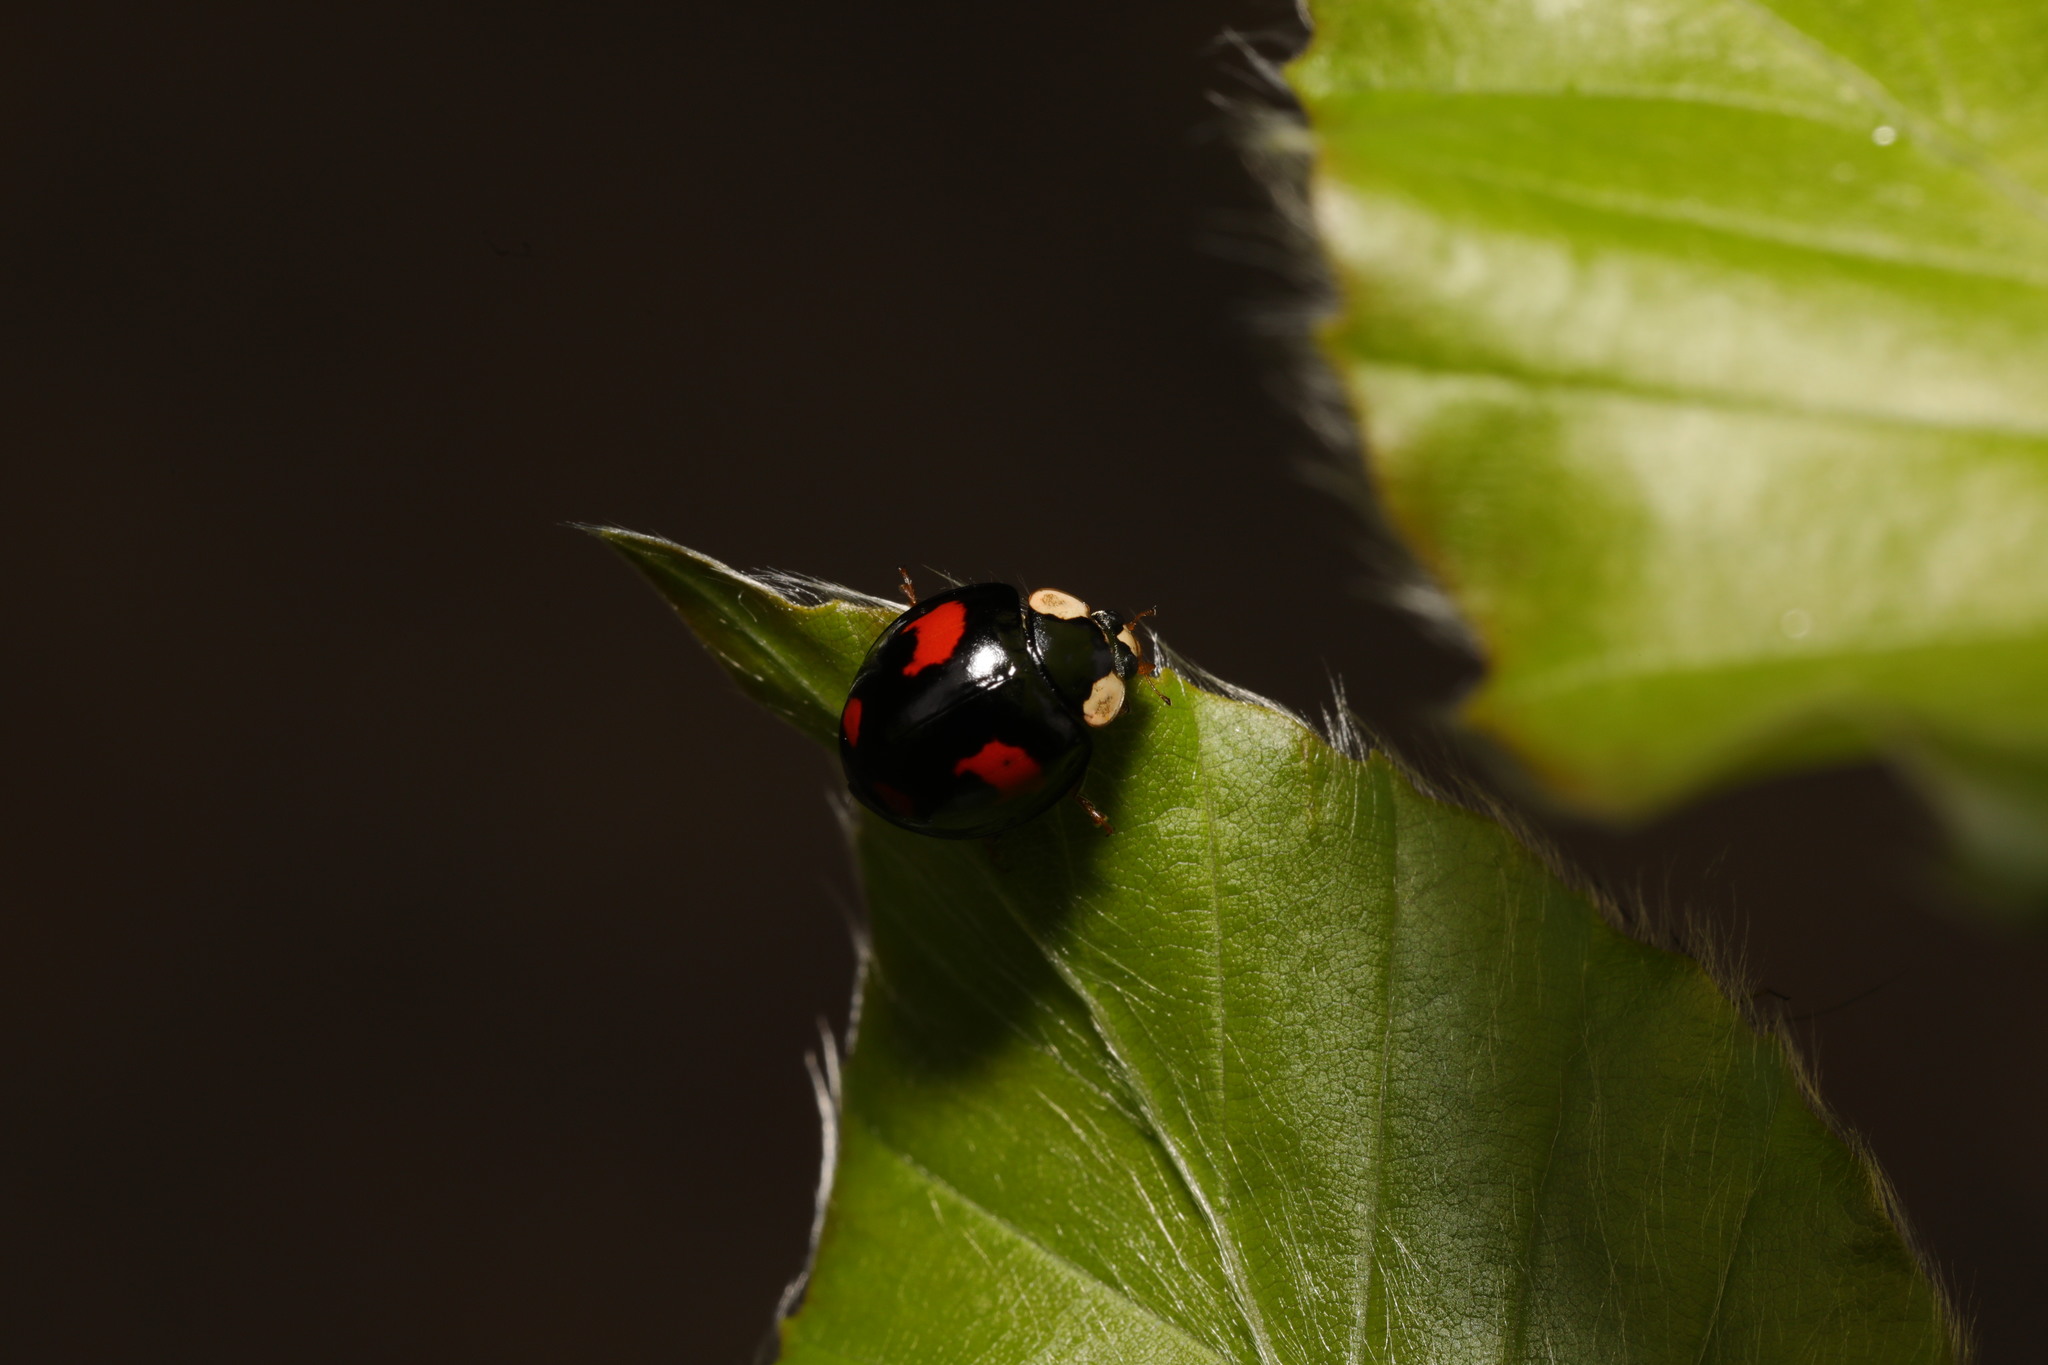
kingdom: Animalia
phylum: Arthropoda
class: Insecta
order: Coleoptera
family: Coccinellidae
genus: Harmonia
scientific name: Harmonia axyridis
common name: Harlequin ladybird
